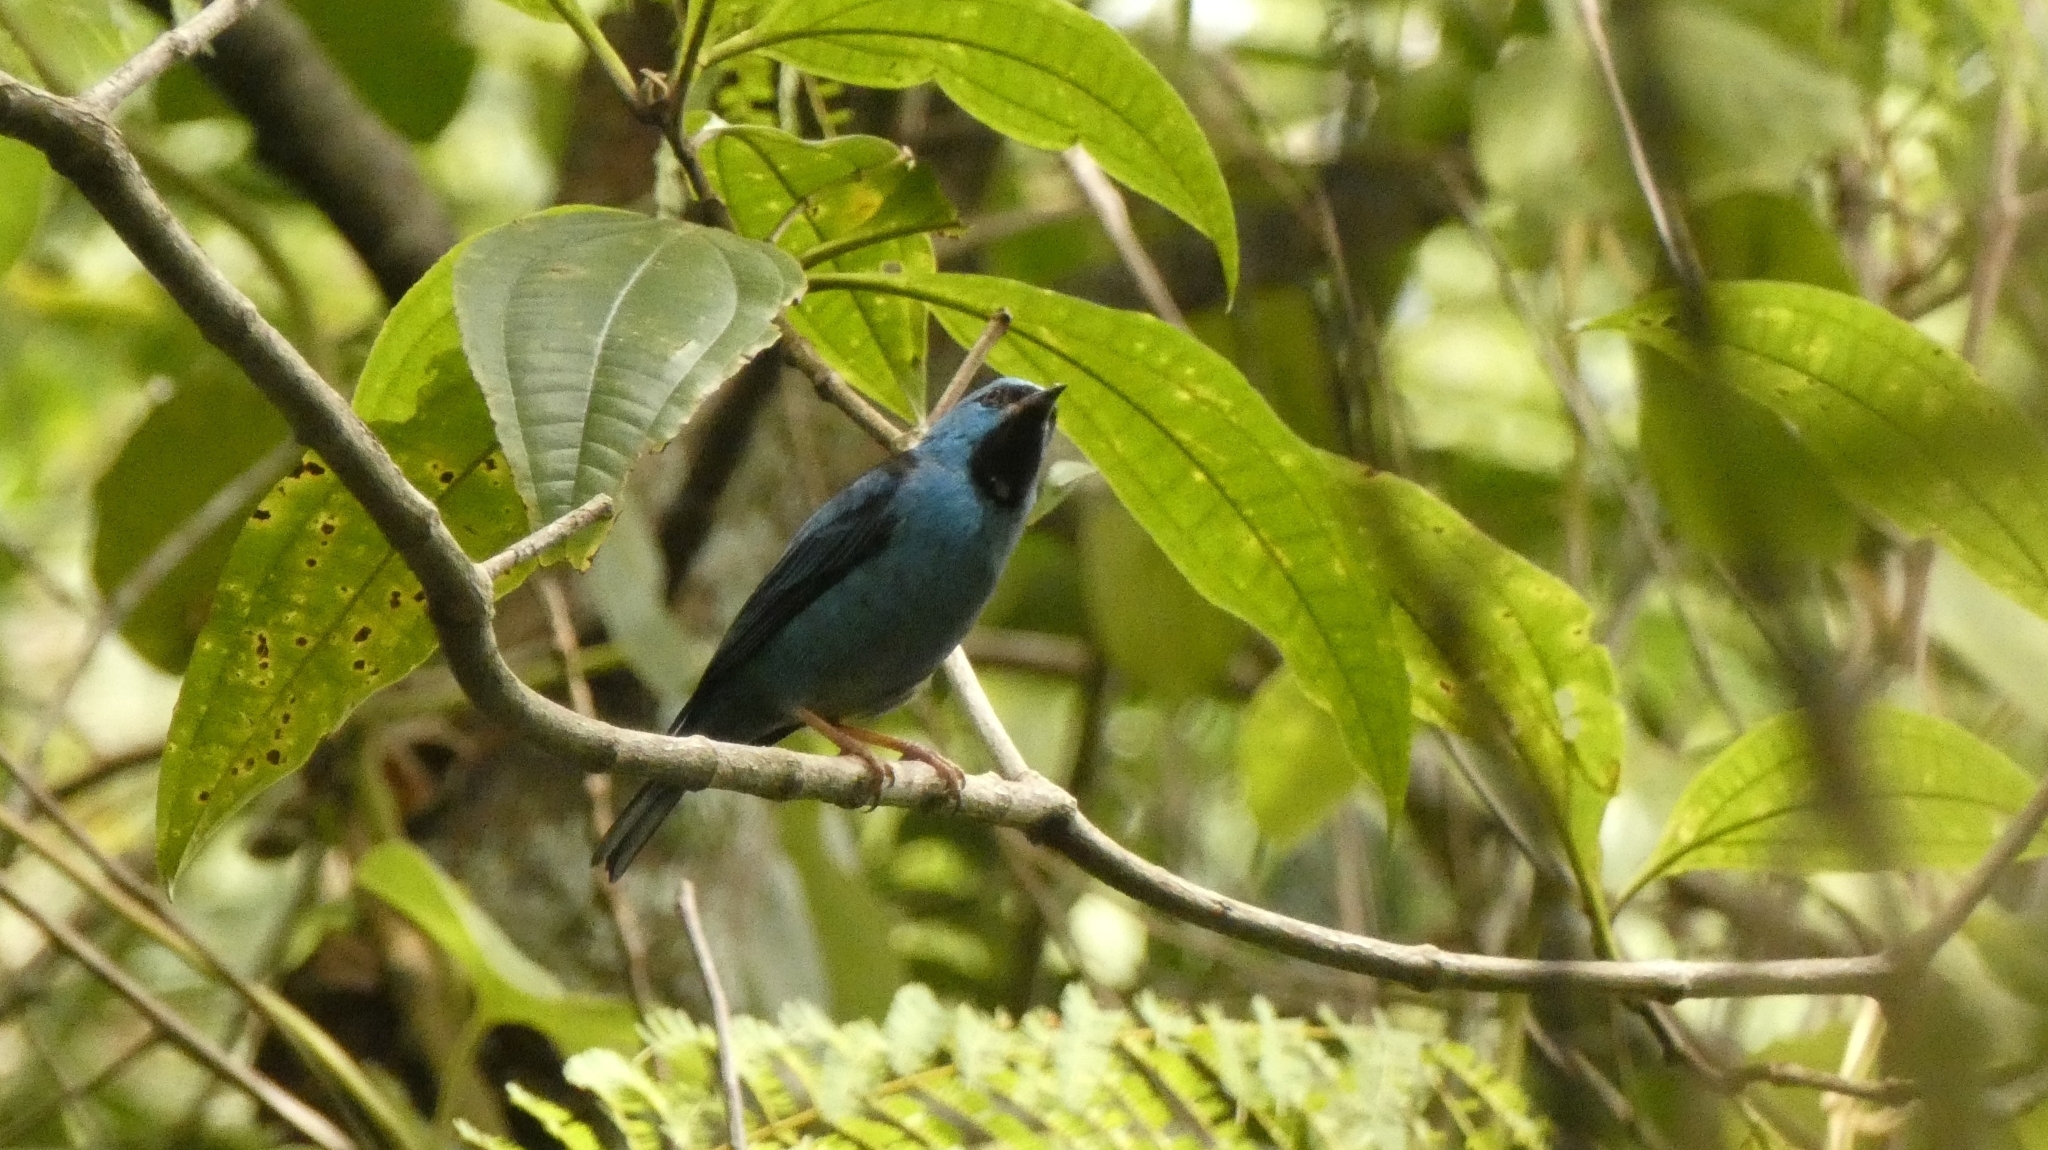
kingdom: Animalia
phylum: Chordata
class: Aves
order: Passeriformes
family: Thraupidae
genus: Dacnis
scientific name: Dacnis cayana
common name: Blue dacnis
